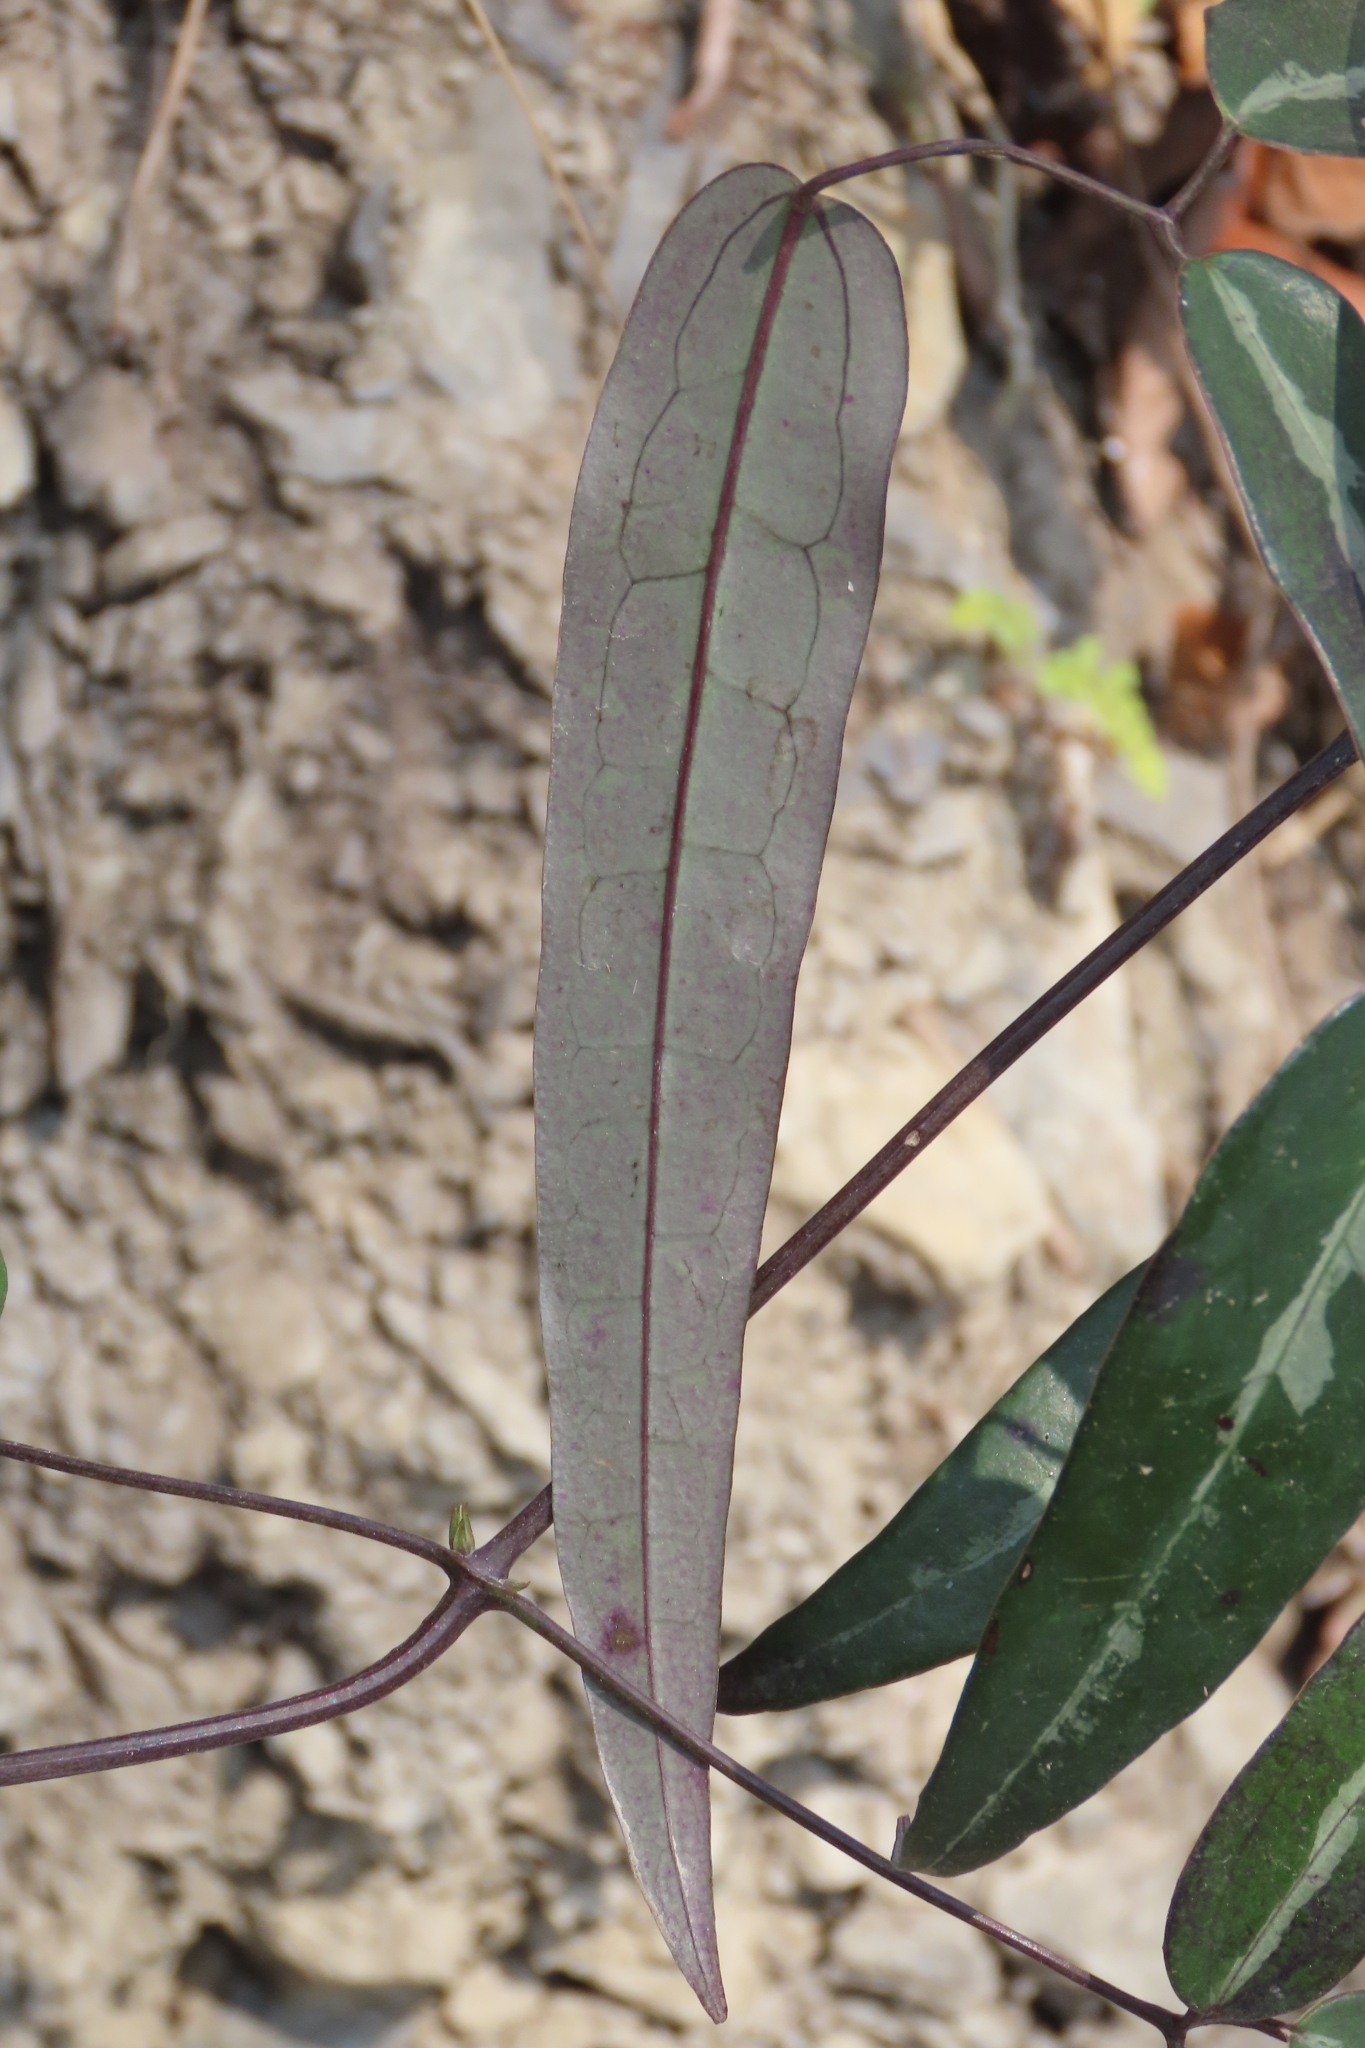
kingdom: Plantae
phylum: Tracheophyta
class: Magnoliopsida
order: Ranunculales
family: Ranunculaceae
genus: Clematis
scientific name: Clematis uncinata
